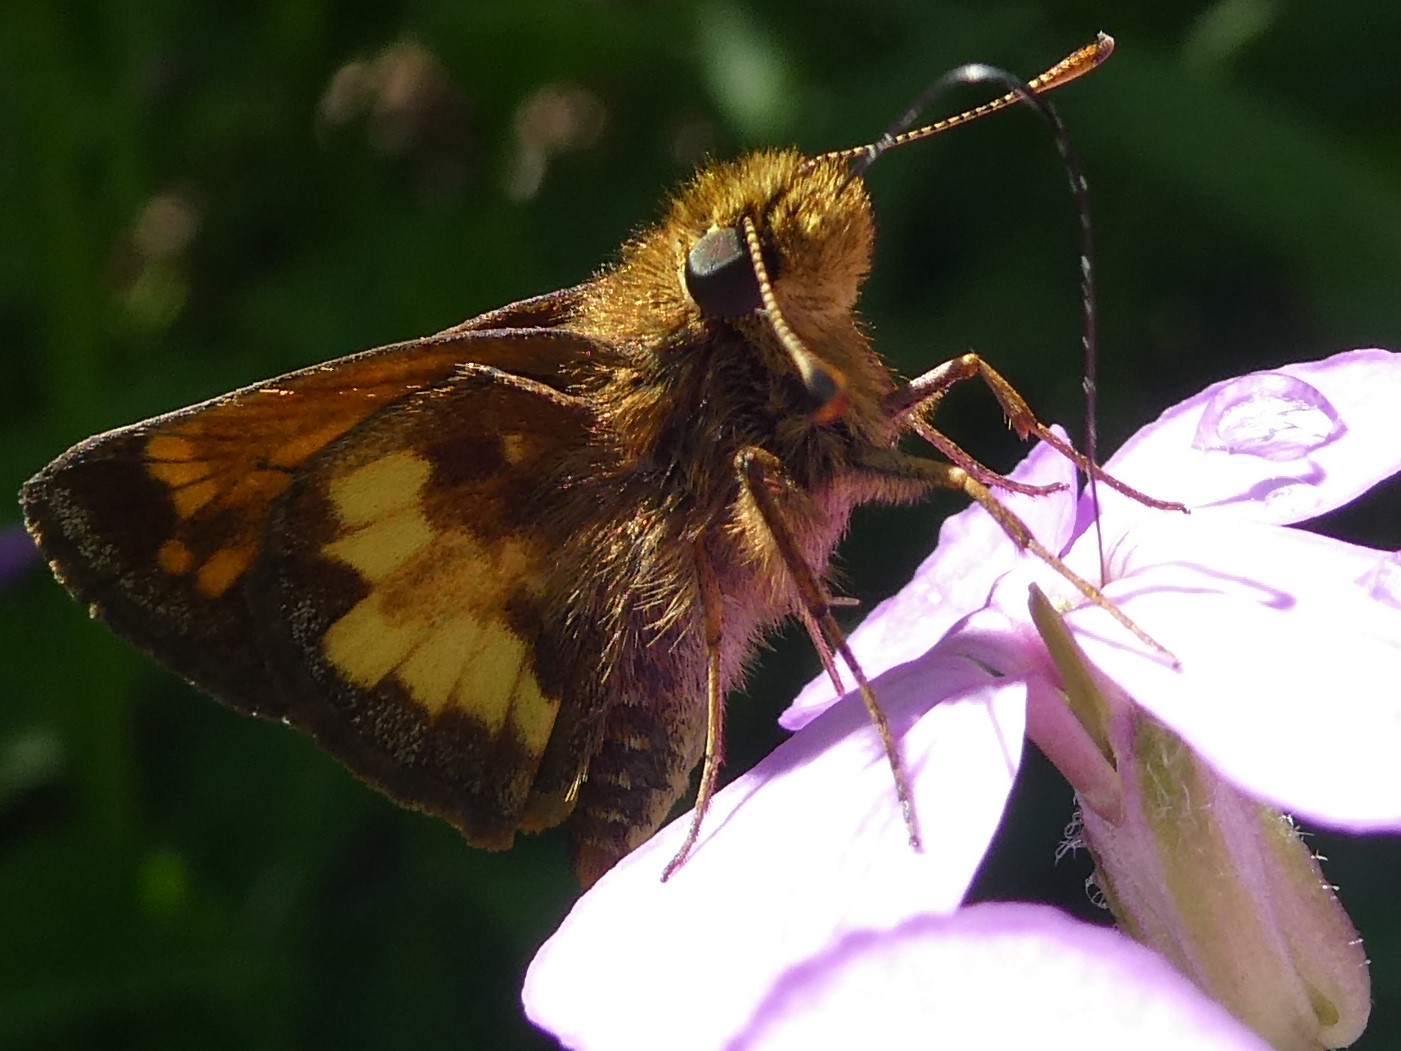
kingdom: Animalia
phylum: Arthropoda
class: Insecta
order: Lepidoptera
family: Hesperiidae
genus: Lon
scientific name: Lon hobomok
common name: Hobomok skipper
